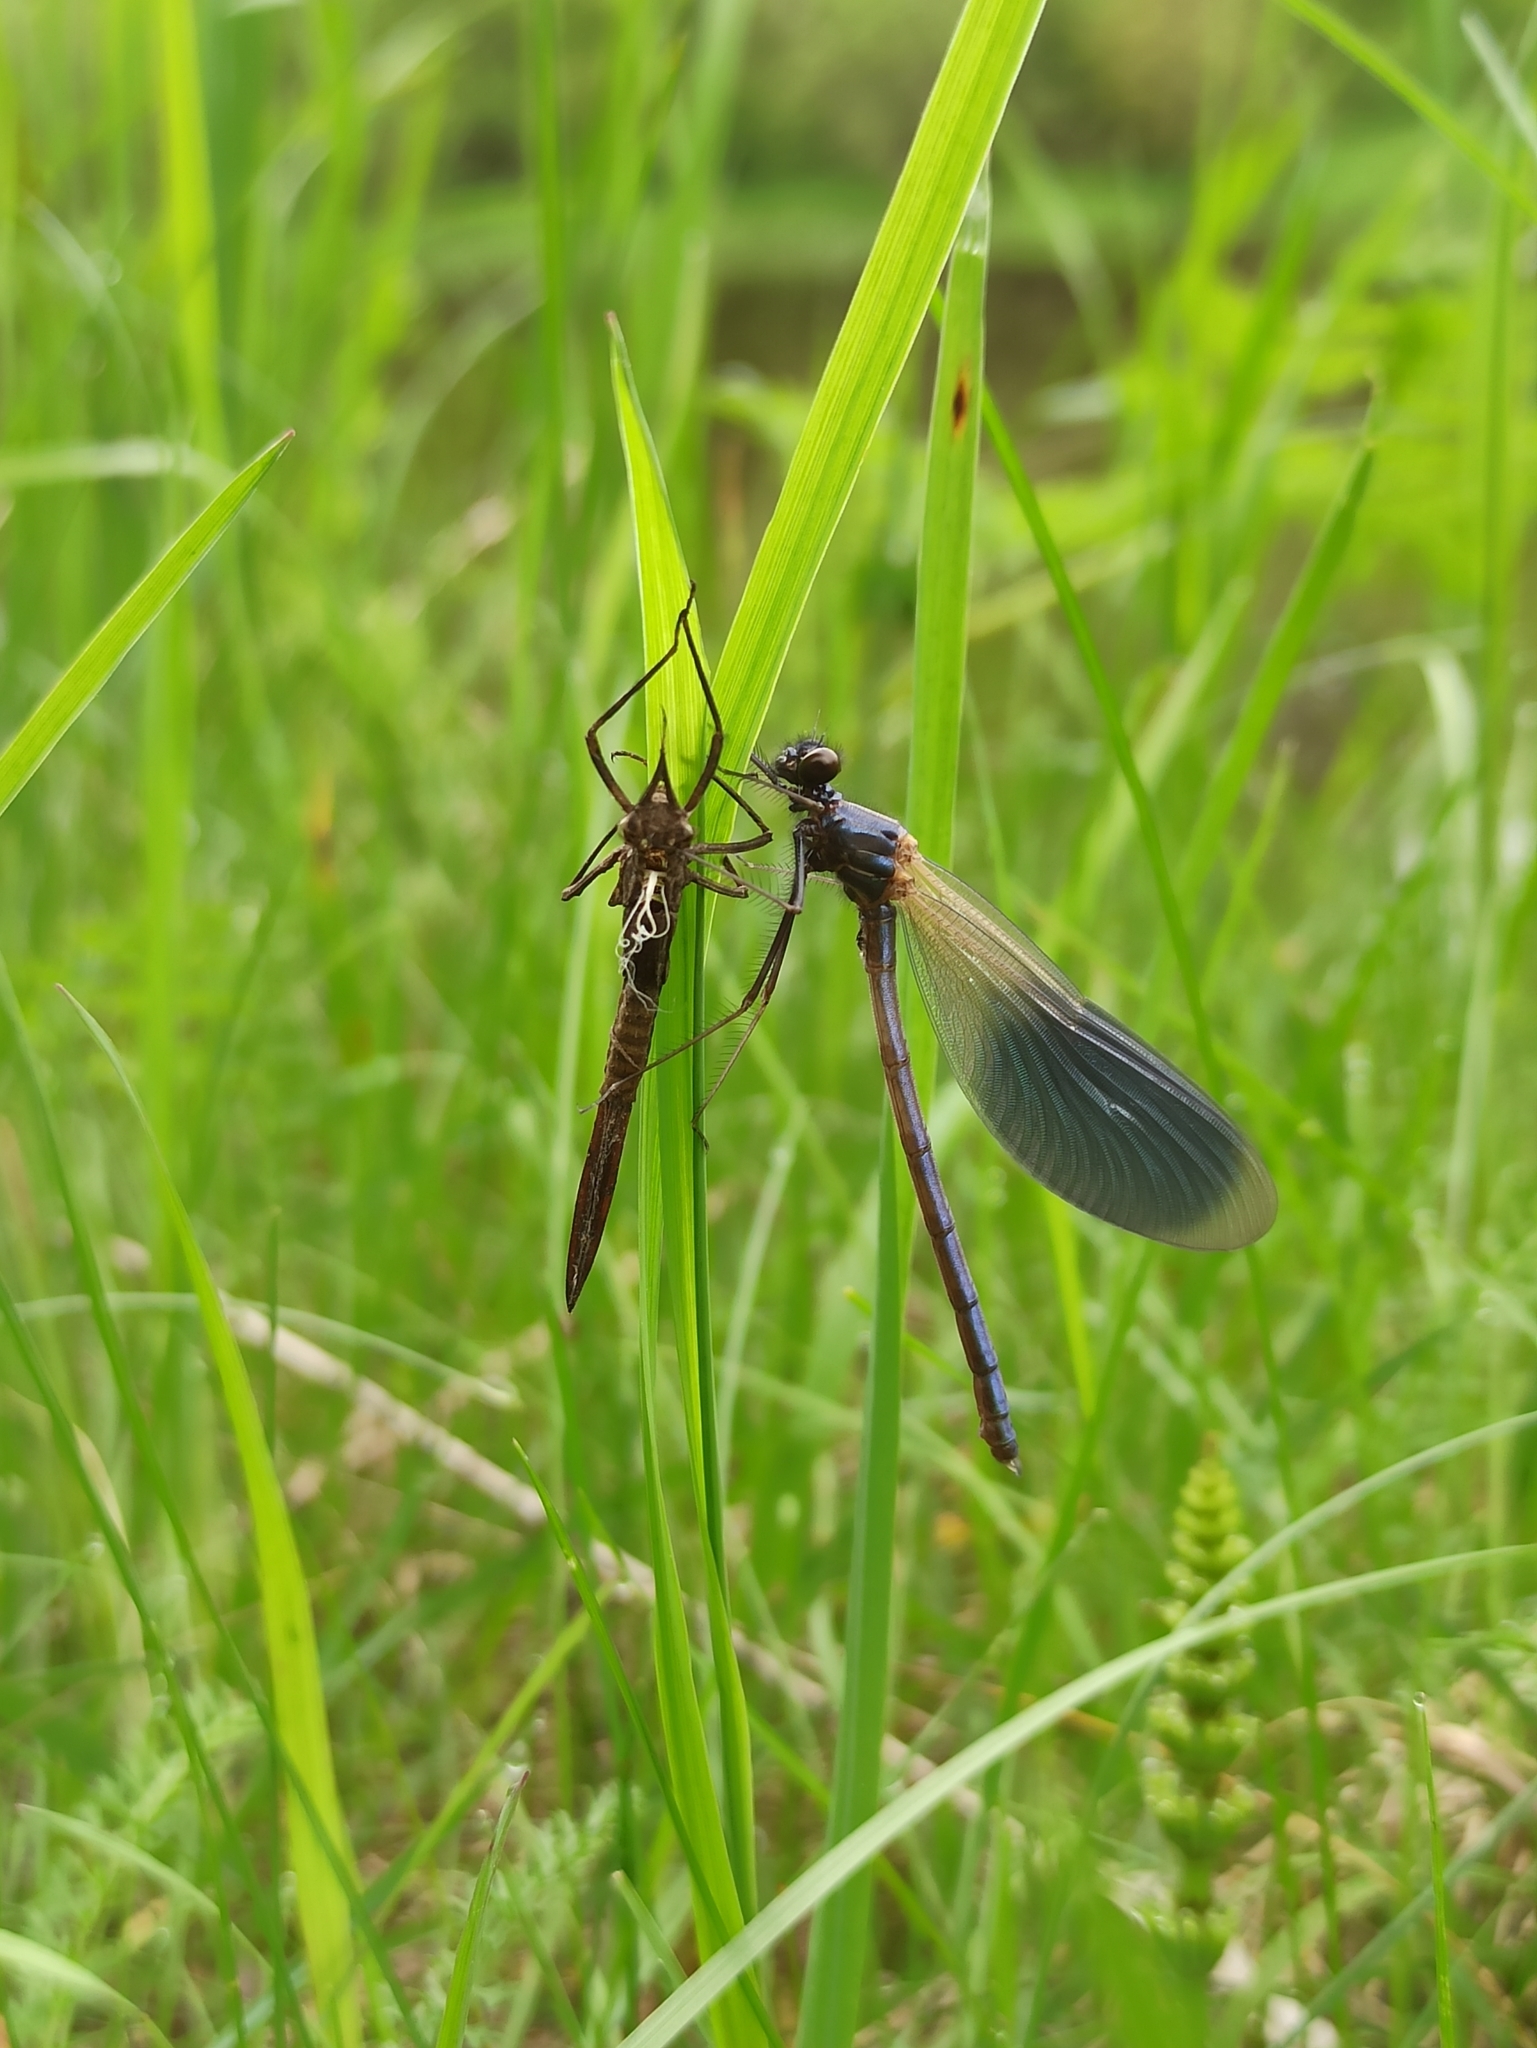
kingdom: Animalia
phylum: Arthropoda
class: Insecta
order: Odonata
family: Calopterygidae
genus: Calopteryx
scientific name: Calopteryx splendens
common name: Banded demoiselle
